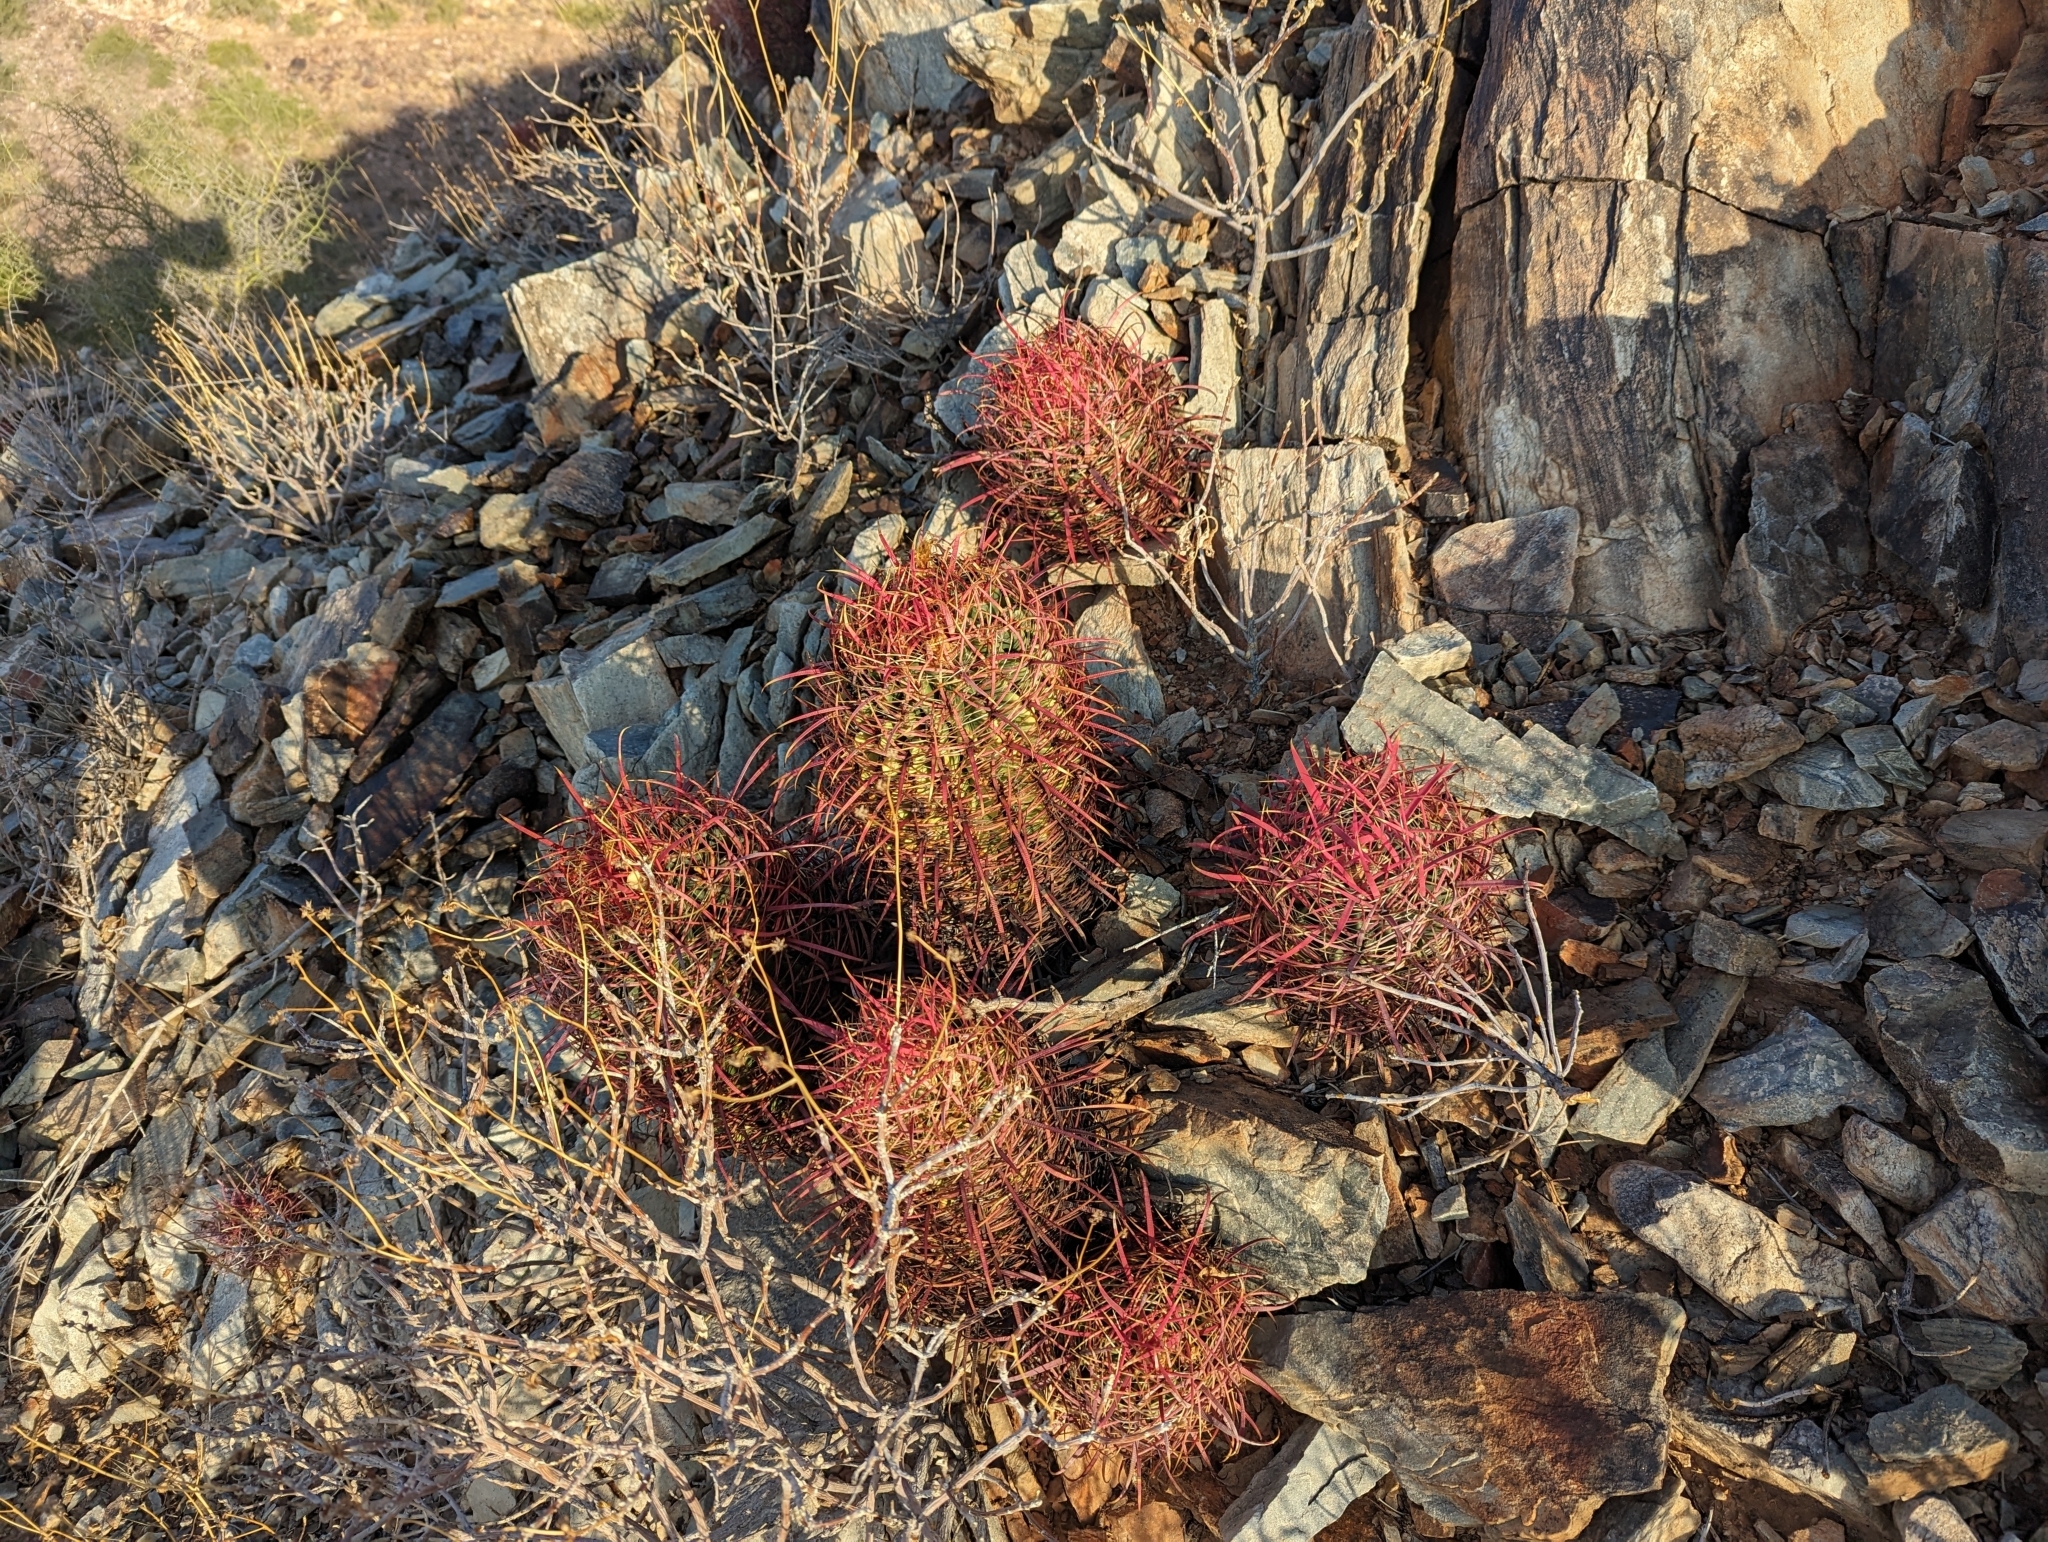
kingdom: Plantae
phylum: Tracheophyta
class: Magnoliopsida
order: Caryophyllales
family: Cactaceae
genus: Ferocactus
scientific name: Ferocactus cylindraceus
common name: California barrel cactus
